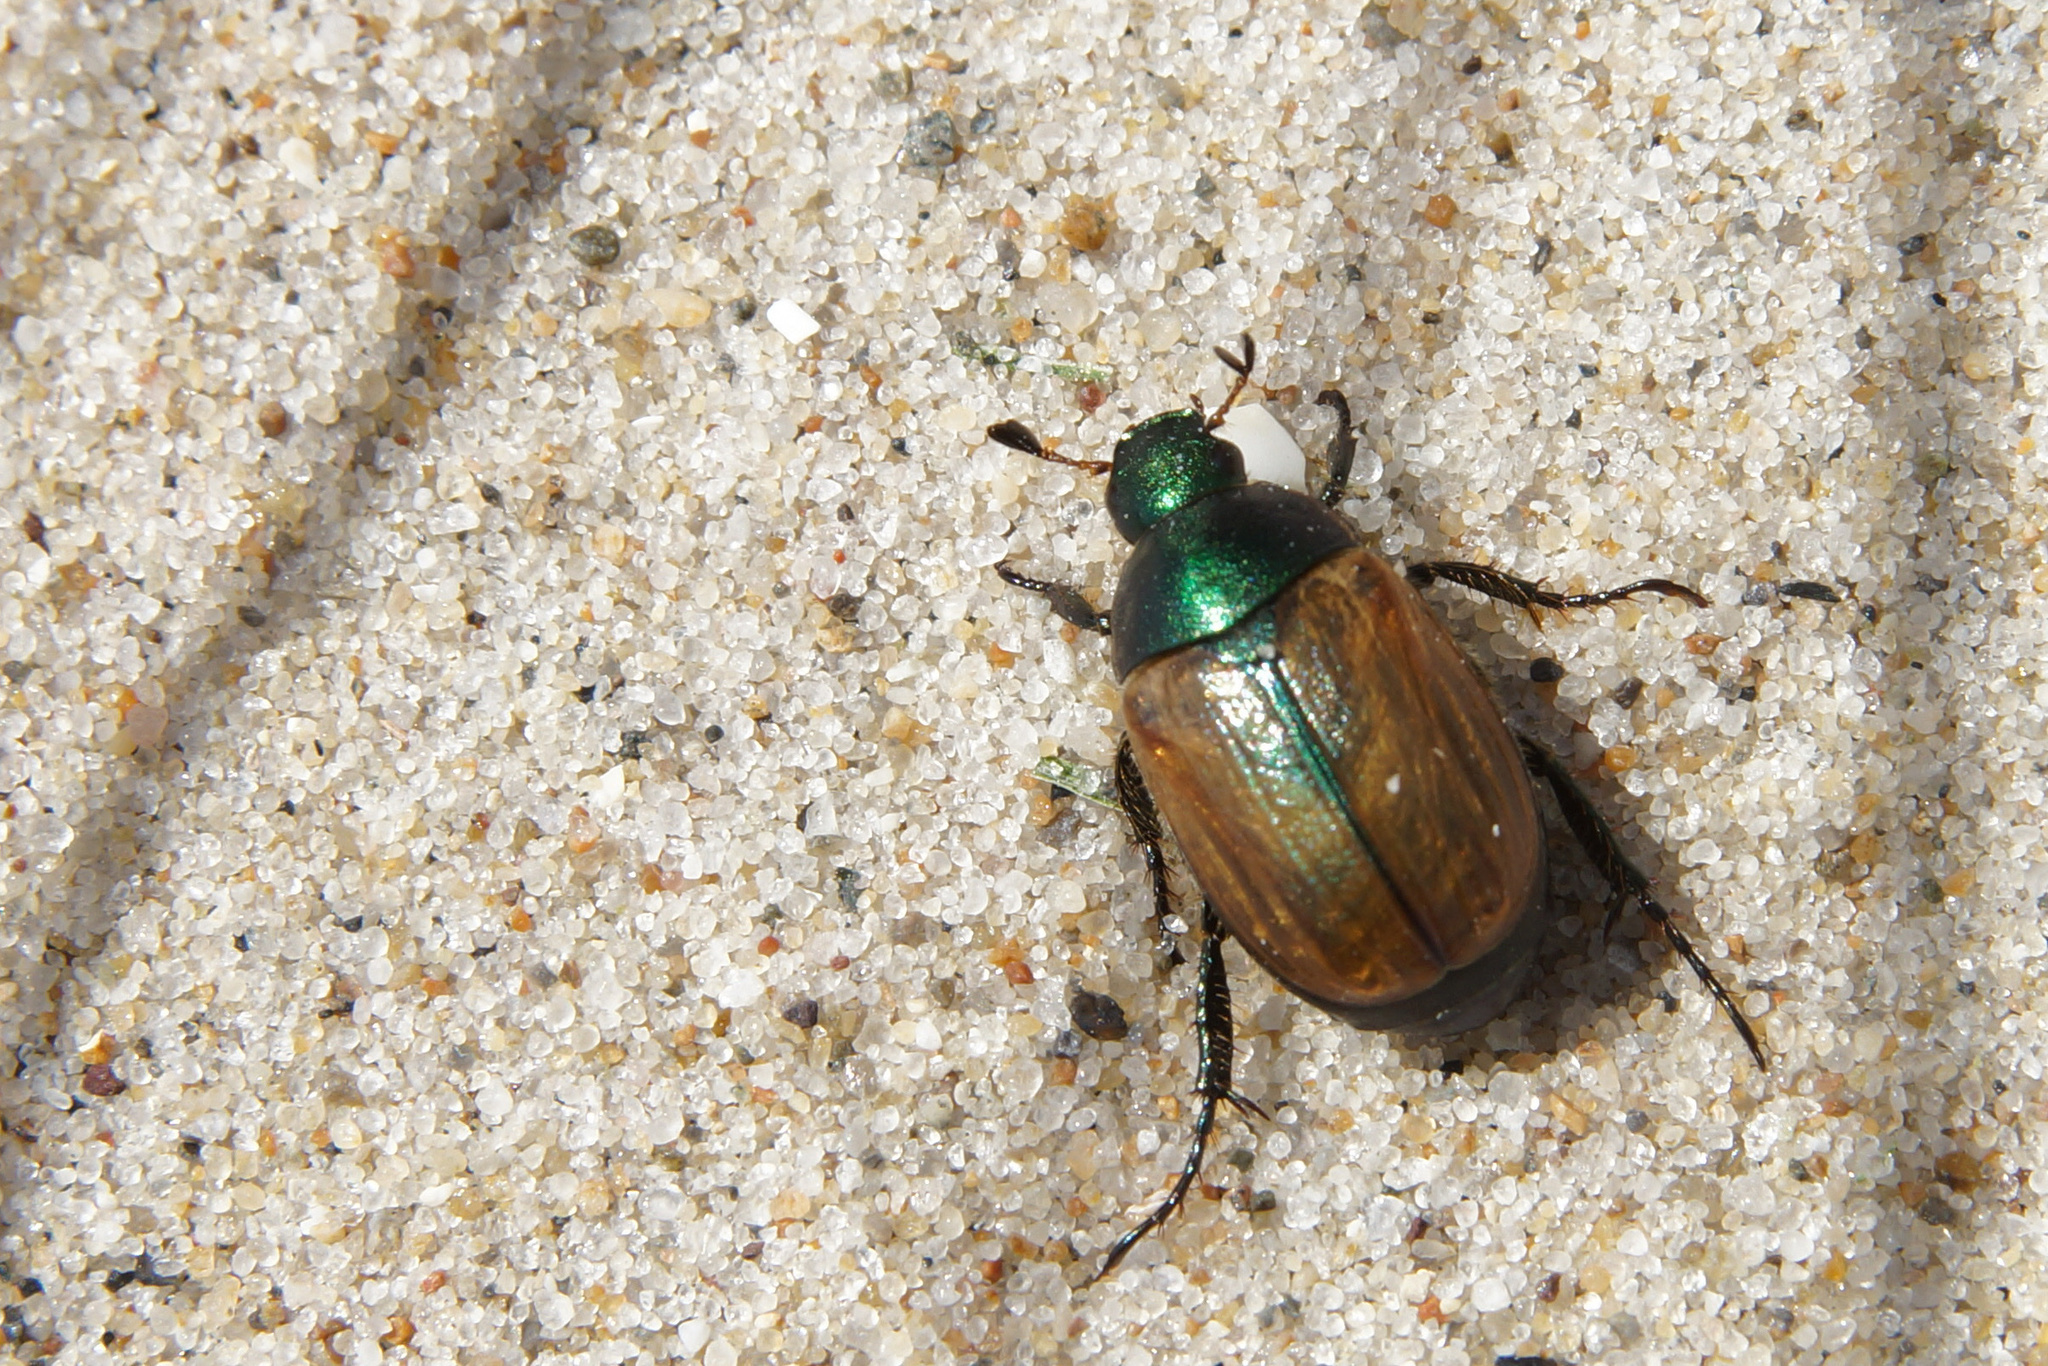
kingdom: Animalia
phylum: Arthropoda
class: Insecta
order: Coleoptera
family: Scarabaeidae
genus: Anomala
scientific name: Anomala dubia
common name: Dune chafer
